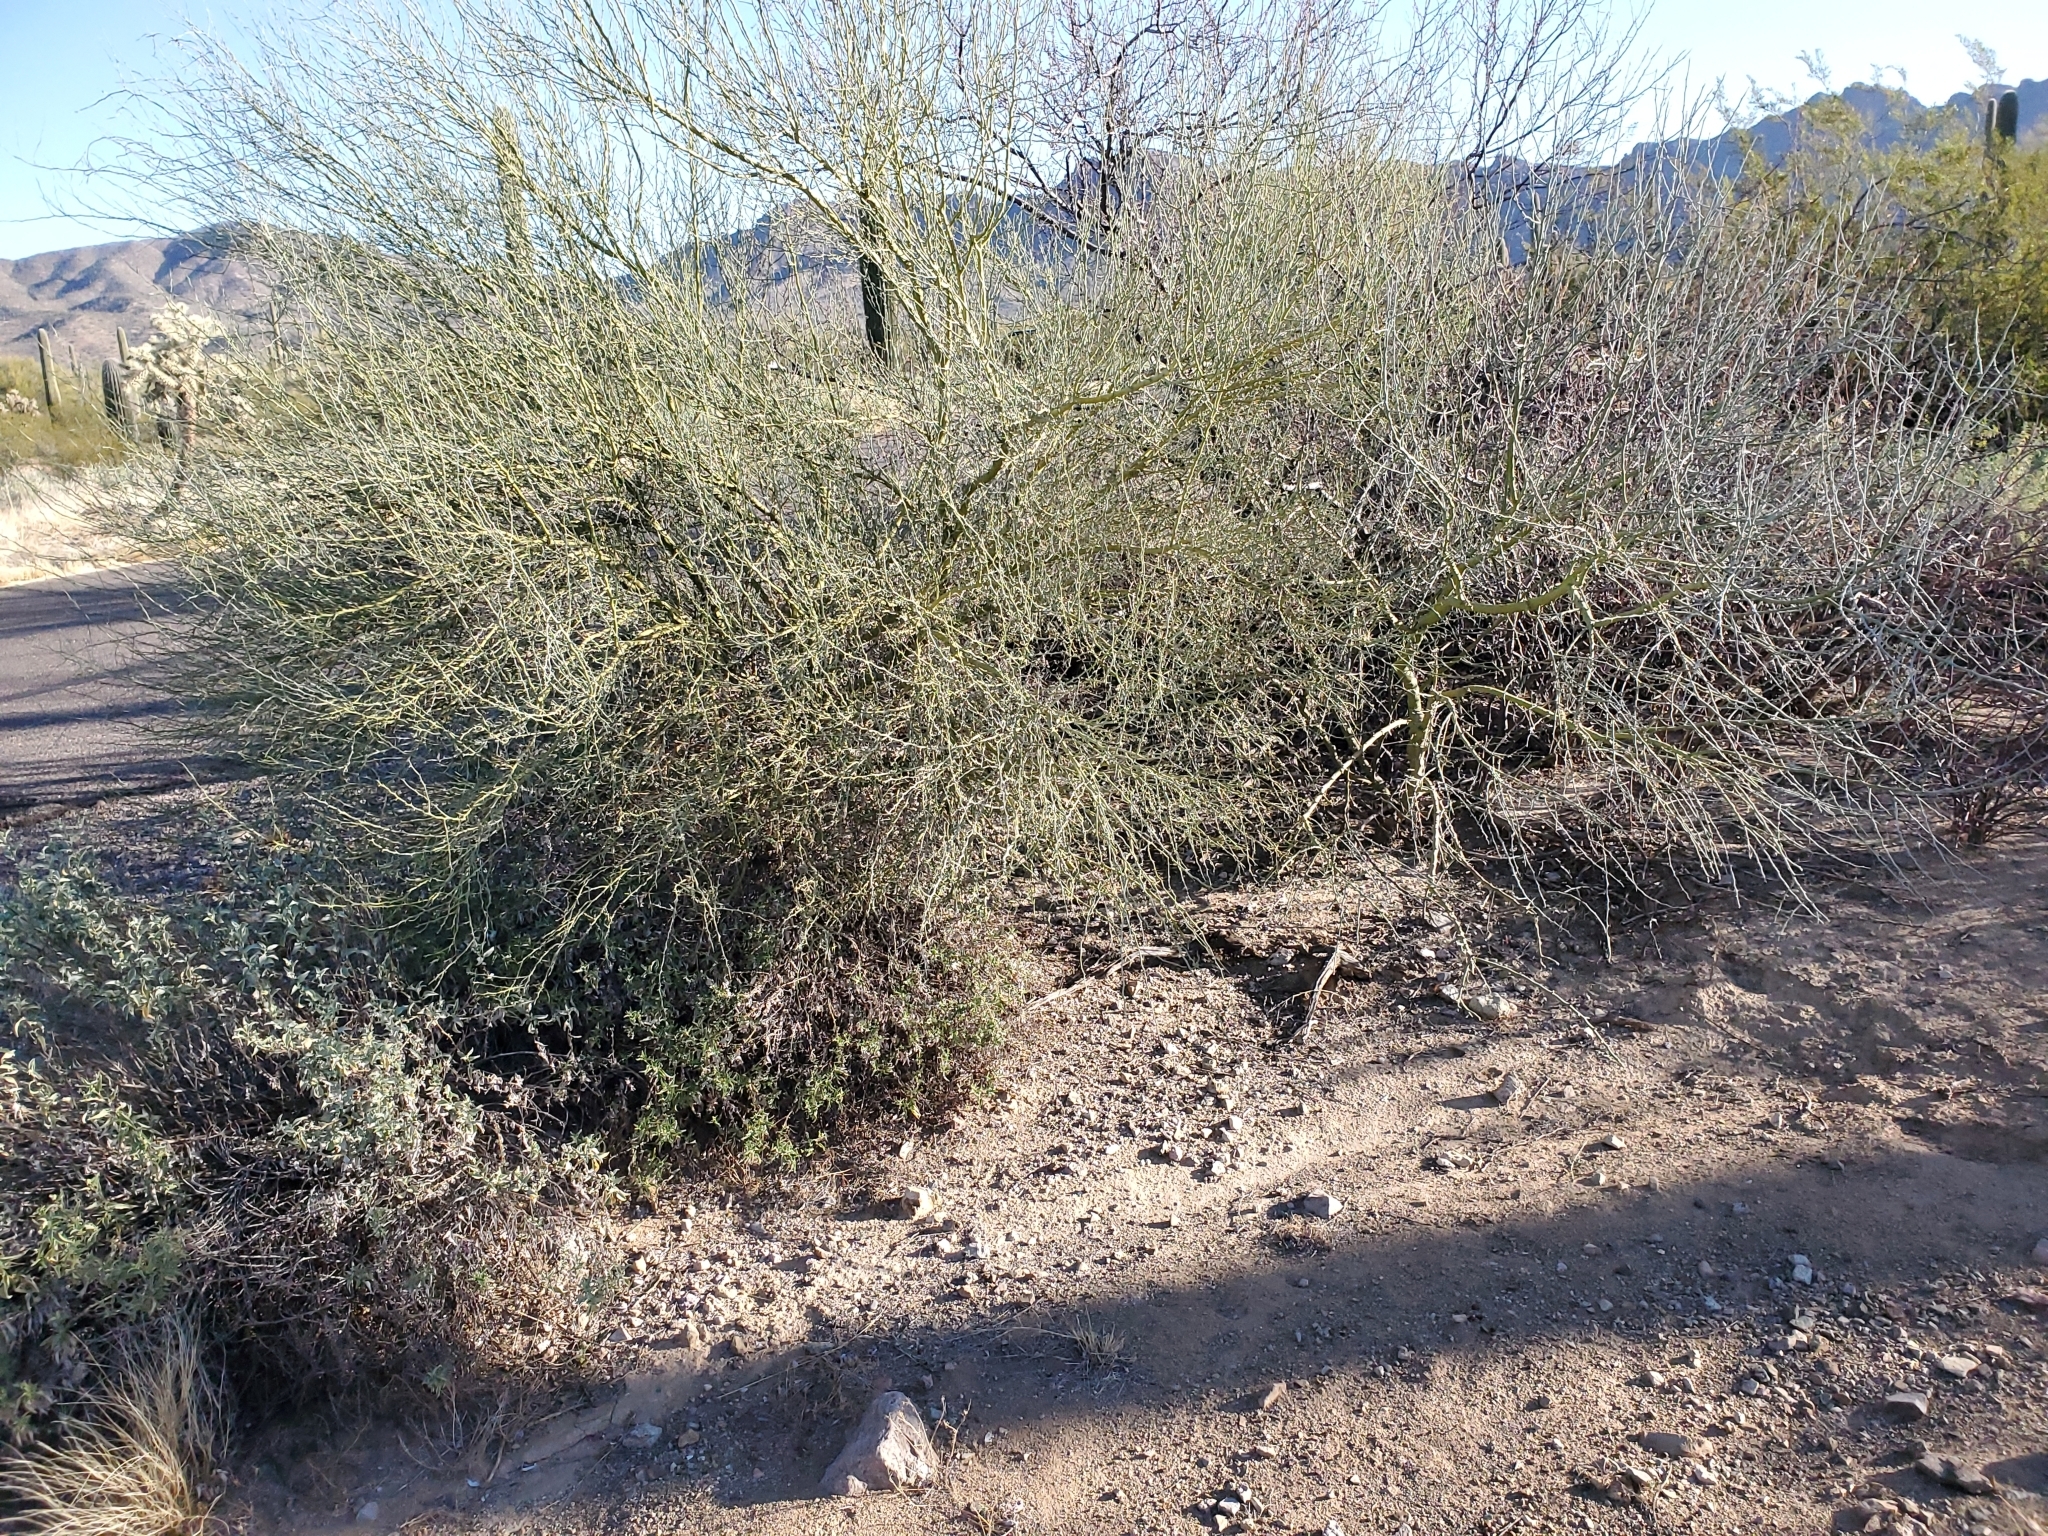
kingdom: Plantae
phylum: Tracheophyta
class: Magnoliopsida
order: Fabales
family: Fabaceae
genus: Parkinsonia
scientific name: Parkinsonia florida
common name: Blue paloverde
